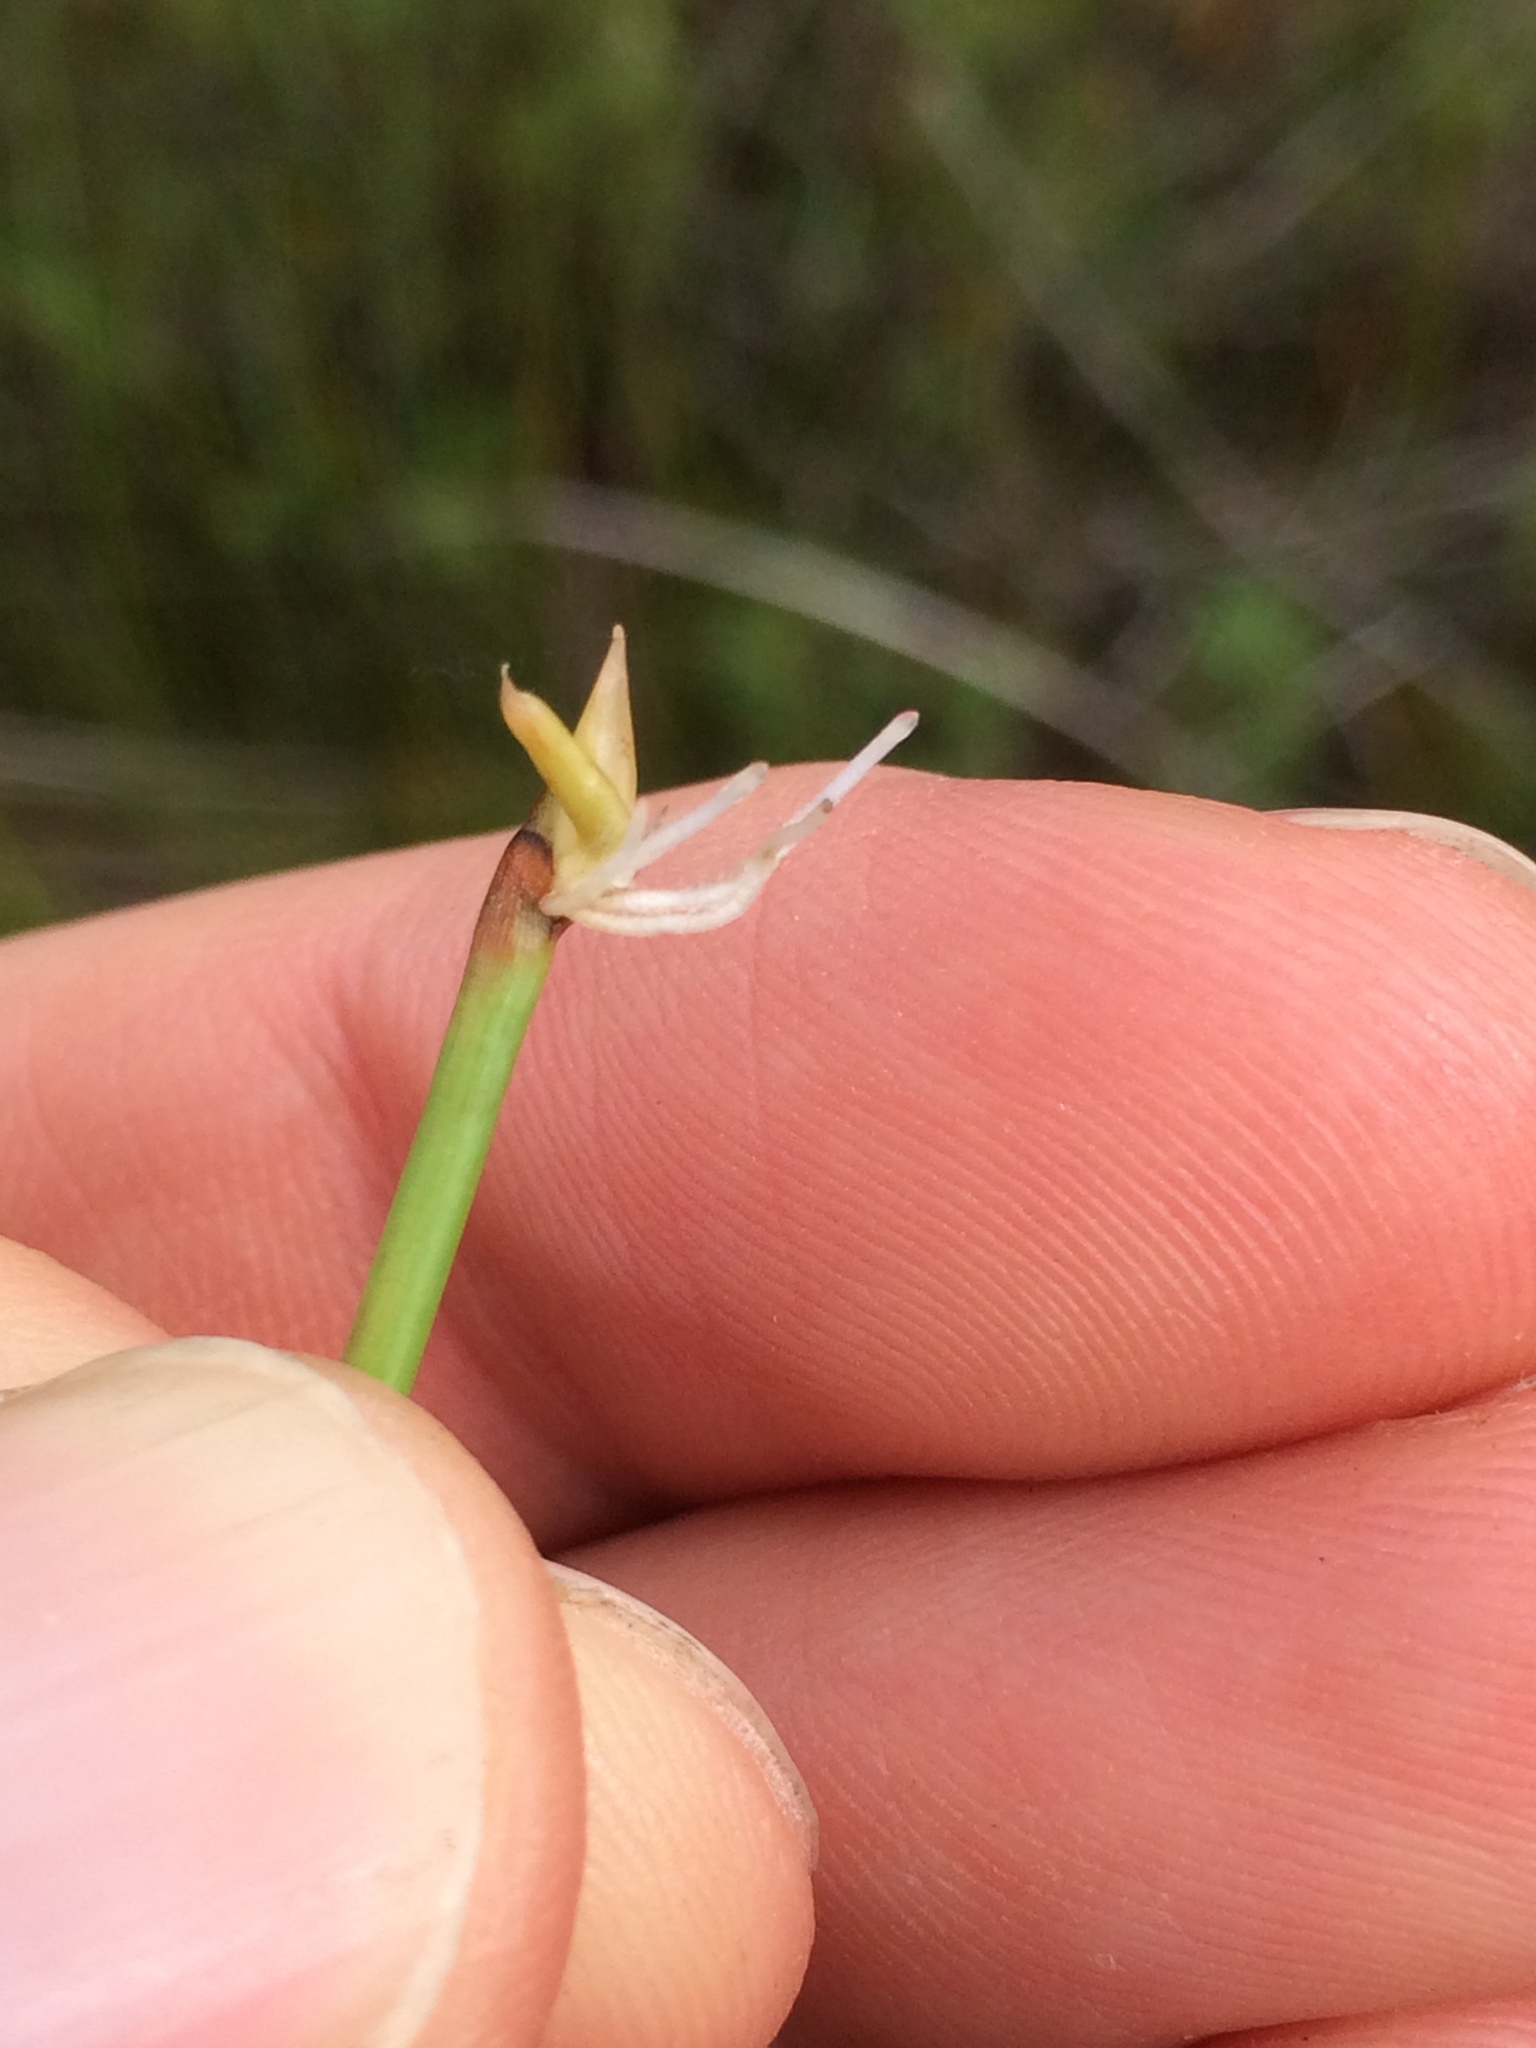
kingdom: Plantae
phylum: Tracheophyta
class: Liliopsida
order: Poales
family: Cyperaceae
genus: Eleocharis
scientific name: Eleocharis rostellata
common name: Walking sedge
